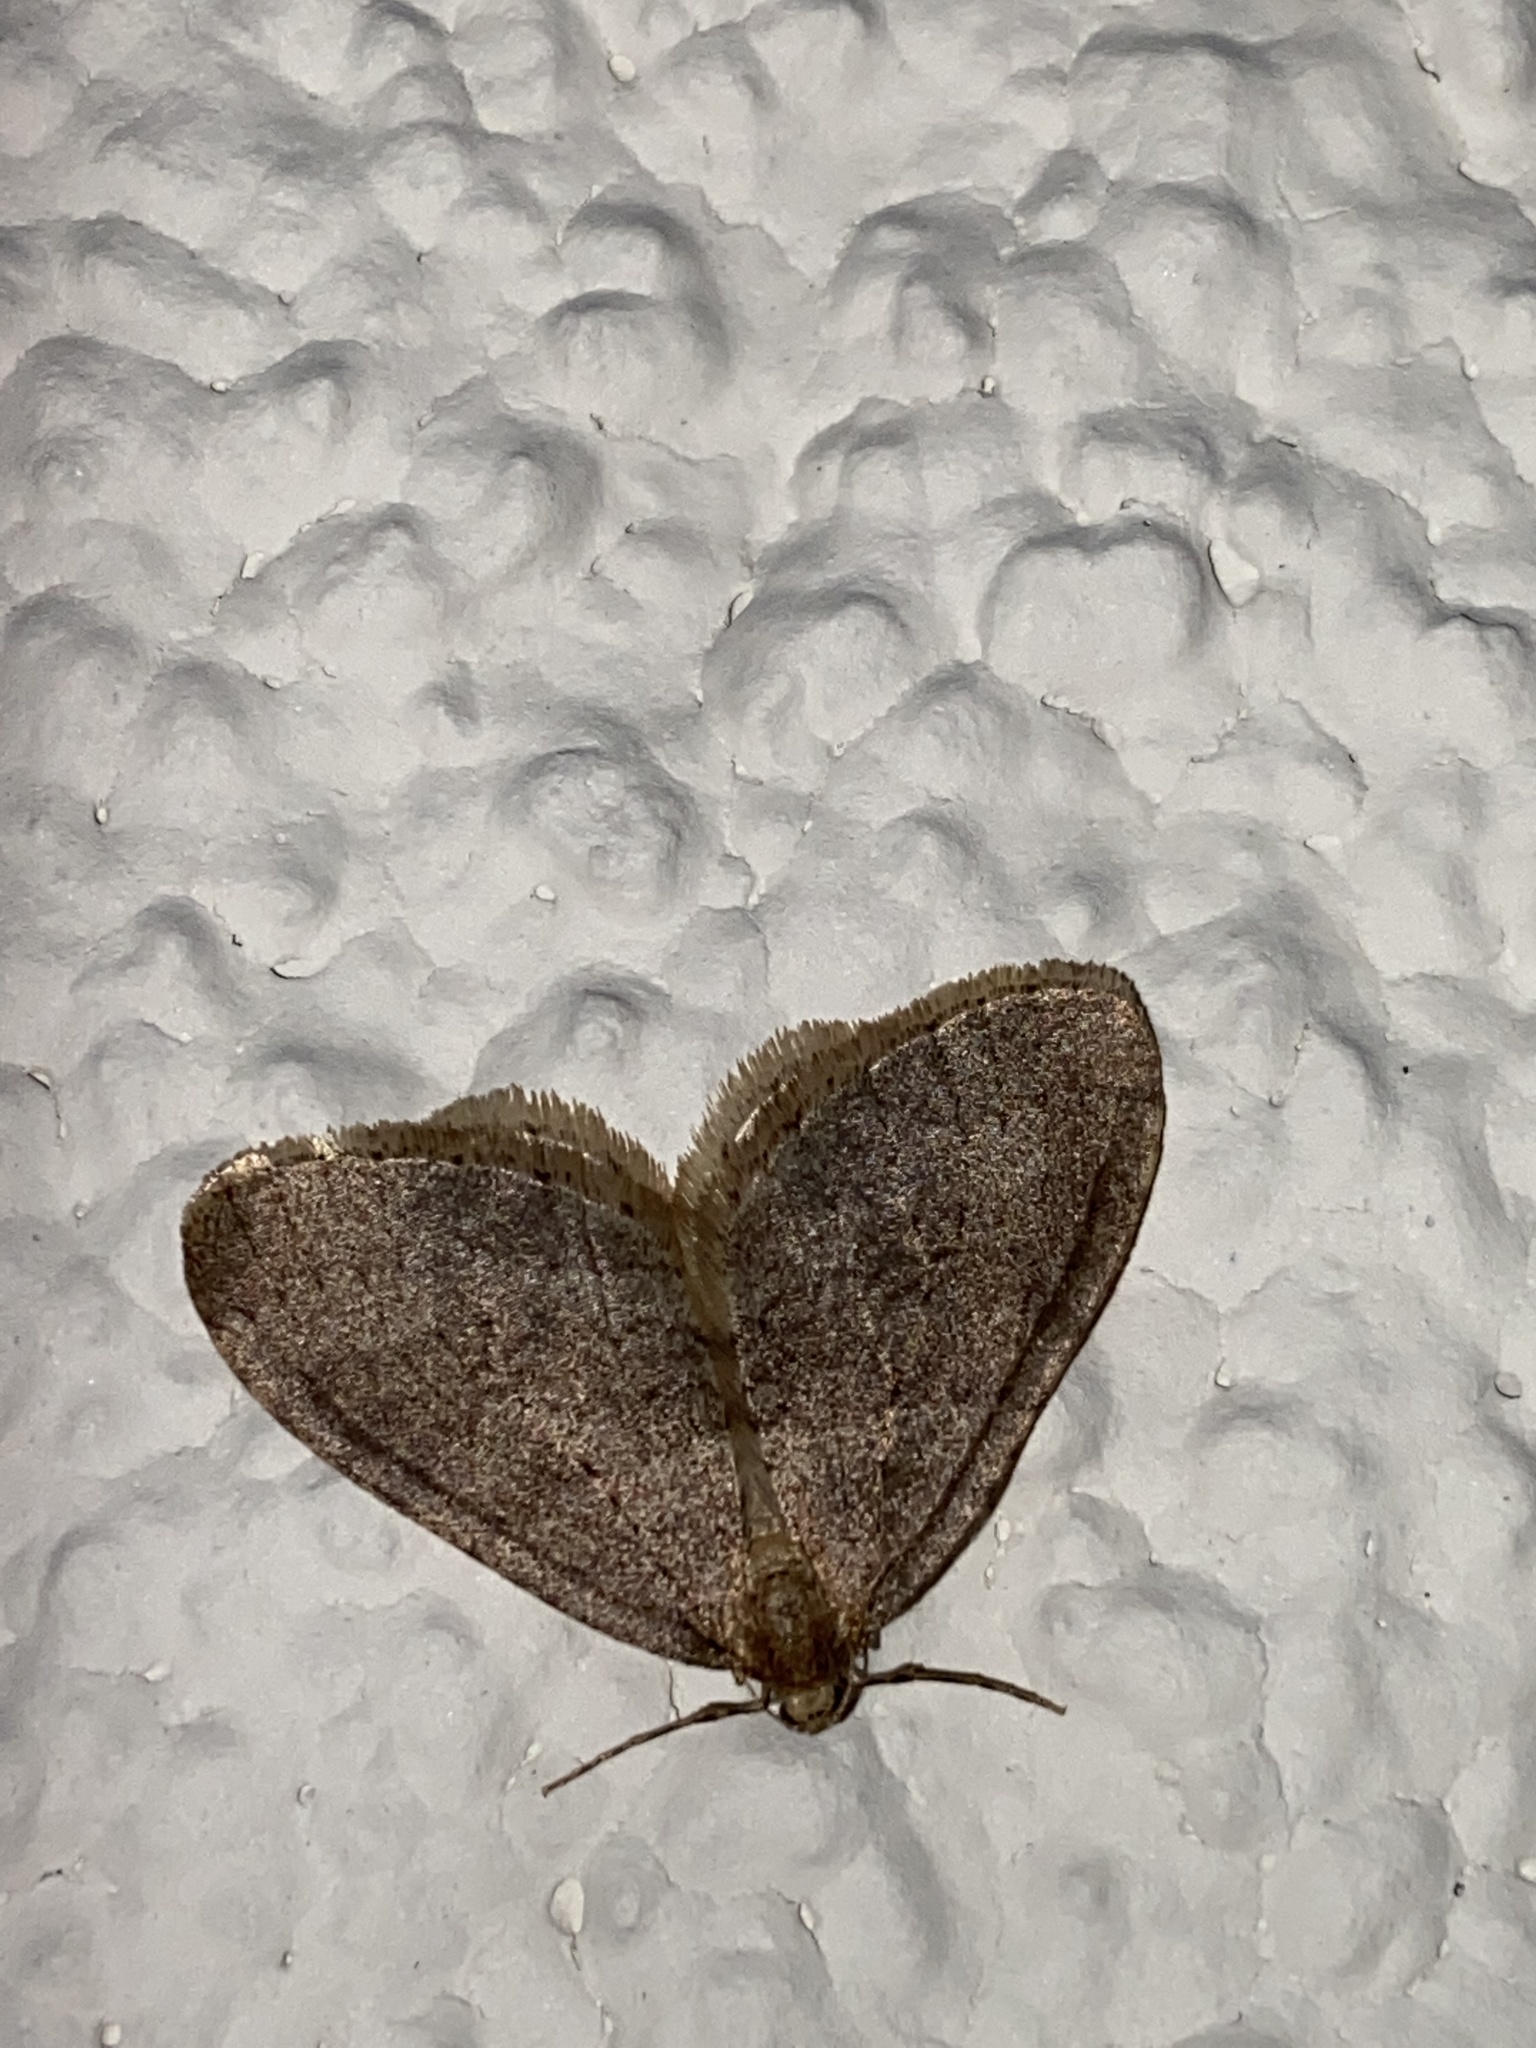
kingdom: Animalia
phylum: Arthropoda
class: Insecta
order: Lepidoptera
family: Geometridae
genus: Operophtera
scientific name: Operophtera brumata
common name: Winter moth
